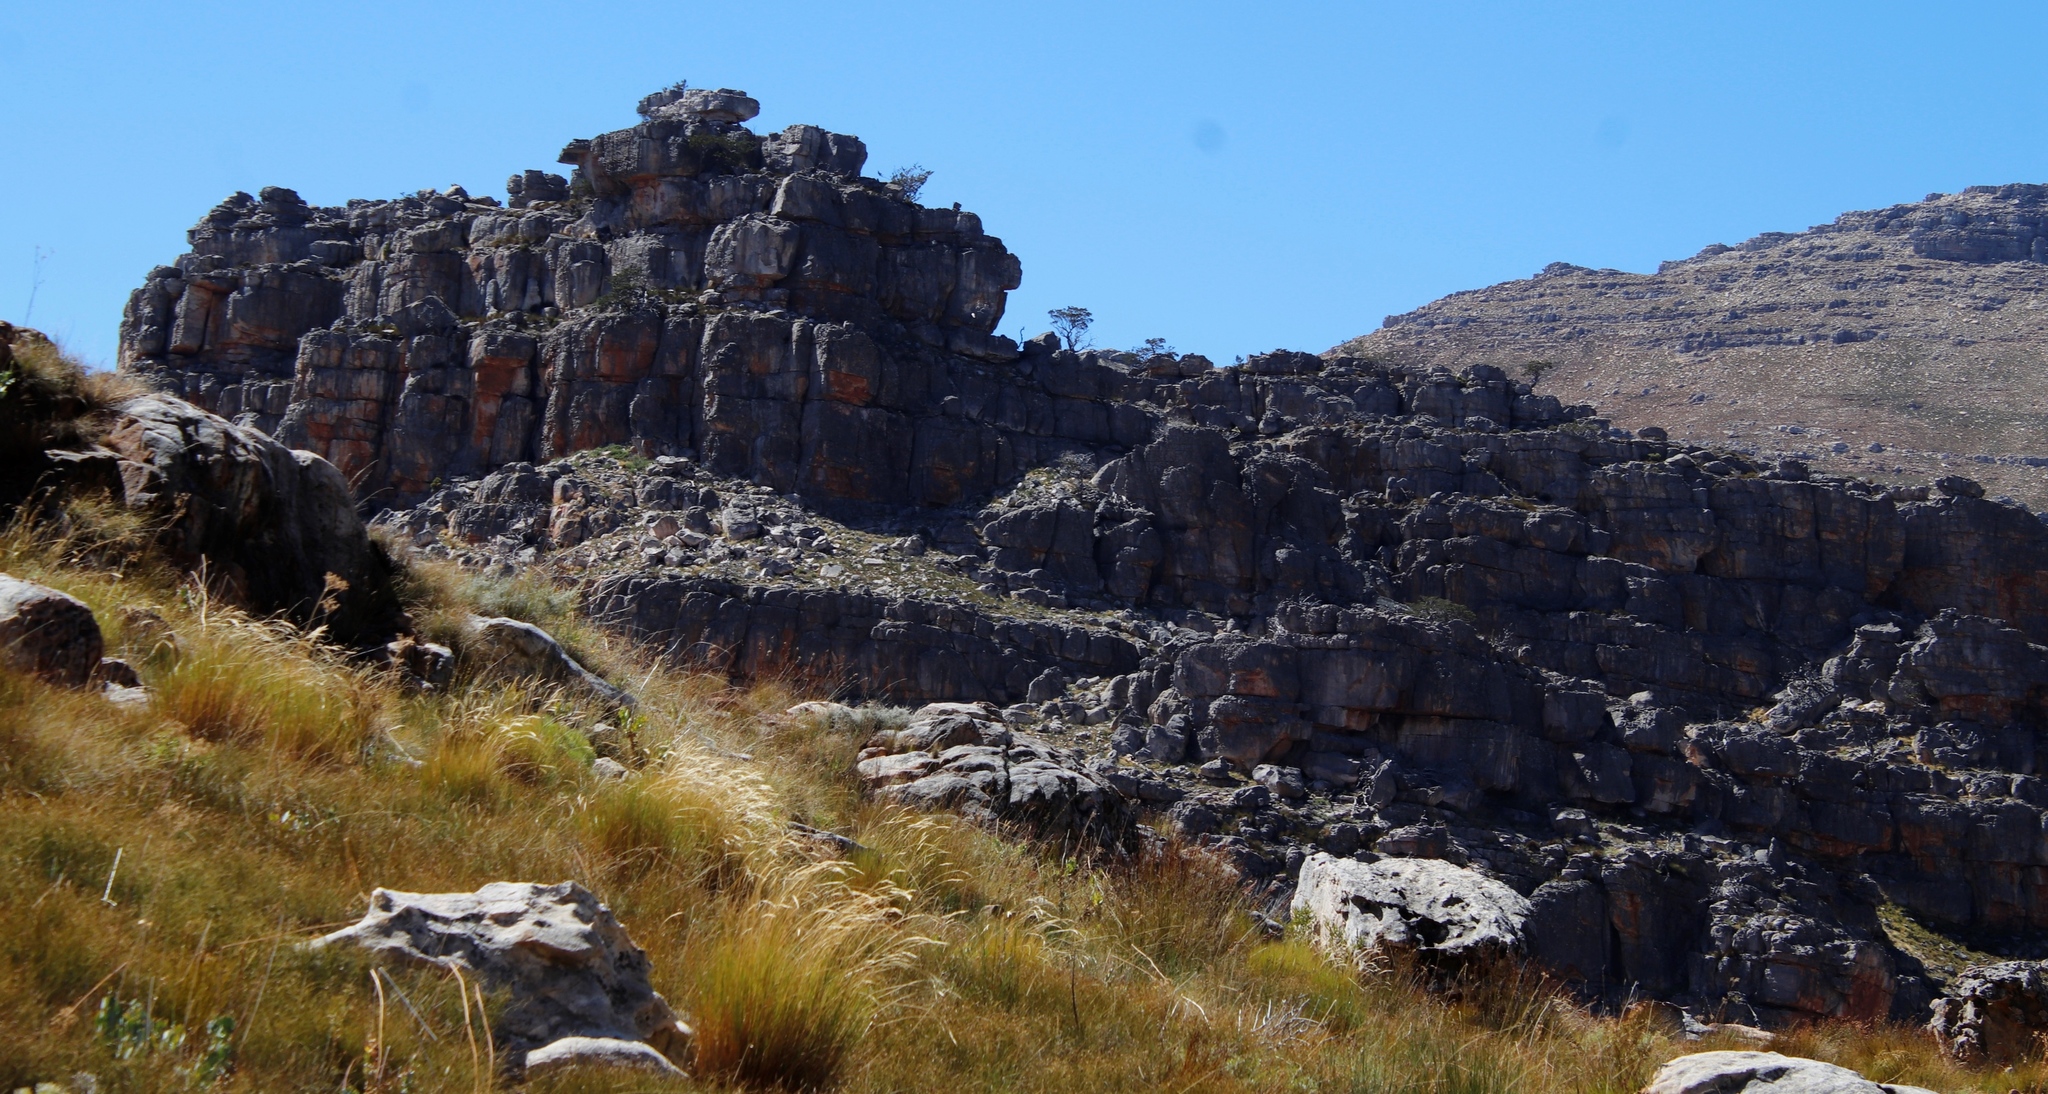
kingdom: Plantae
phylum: Tracheophyta
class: Pinopsida
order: Pinales
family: Cupressaceae
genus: Widdringtonia
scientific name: Widdringtonia nodiflora
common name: Cape cypress
